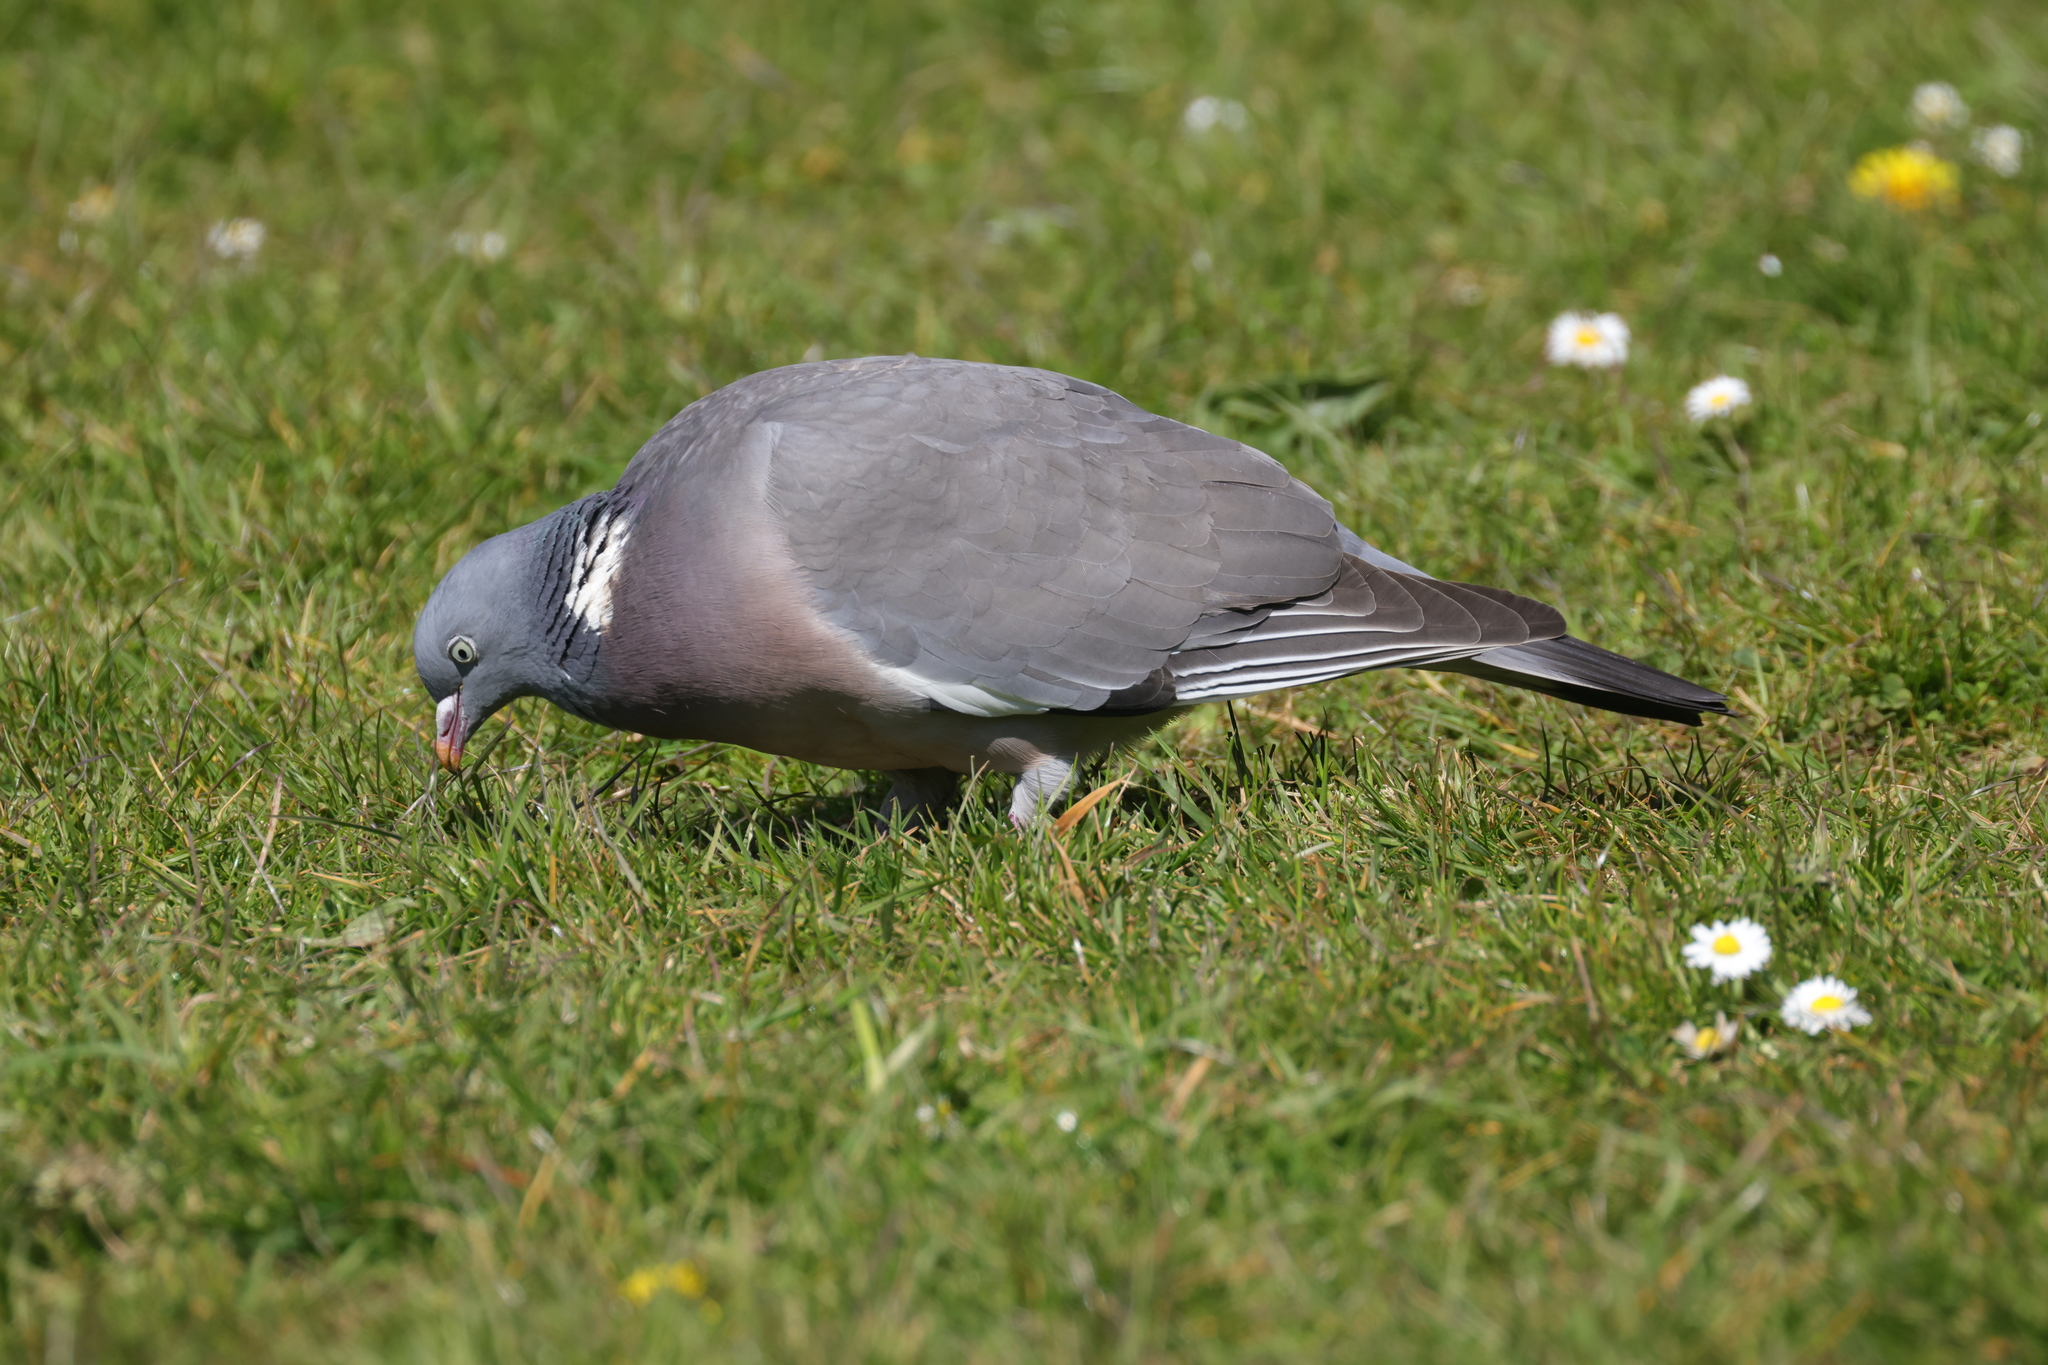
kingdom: Animalia
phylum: Chordata
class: Aves
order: Columbiformes
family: Columbidae
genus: Columba
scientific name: Columba palumbus
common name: Common wood pigeon
